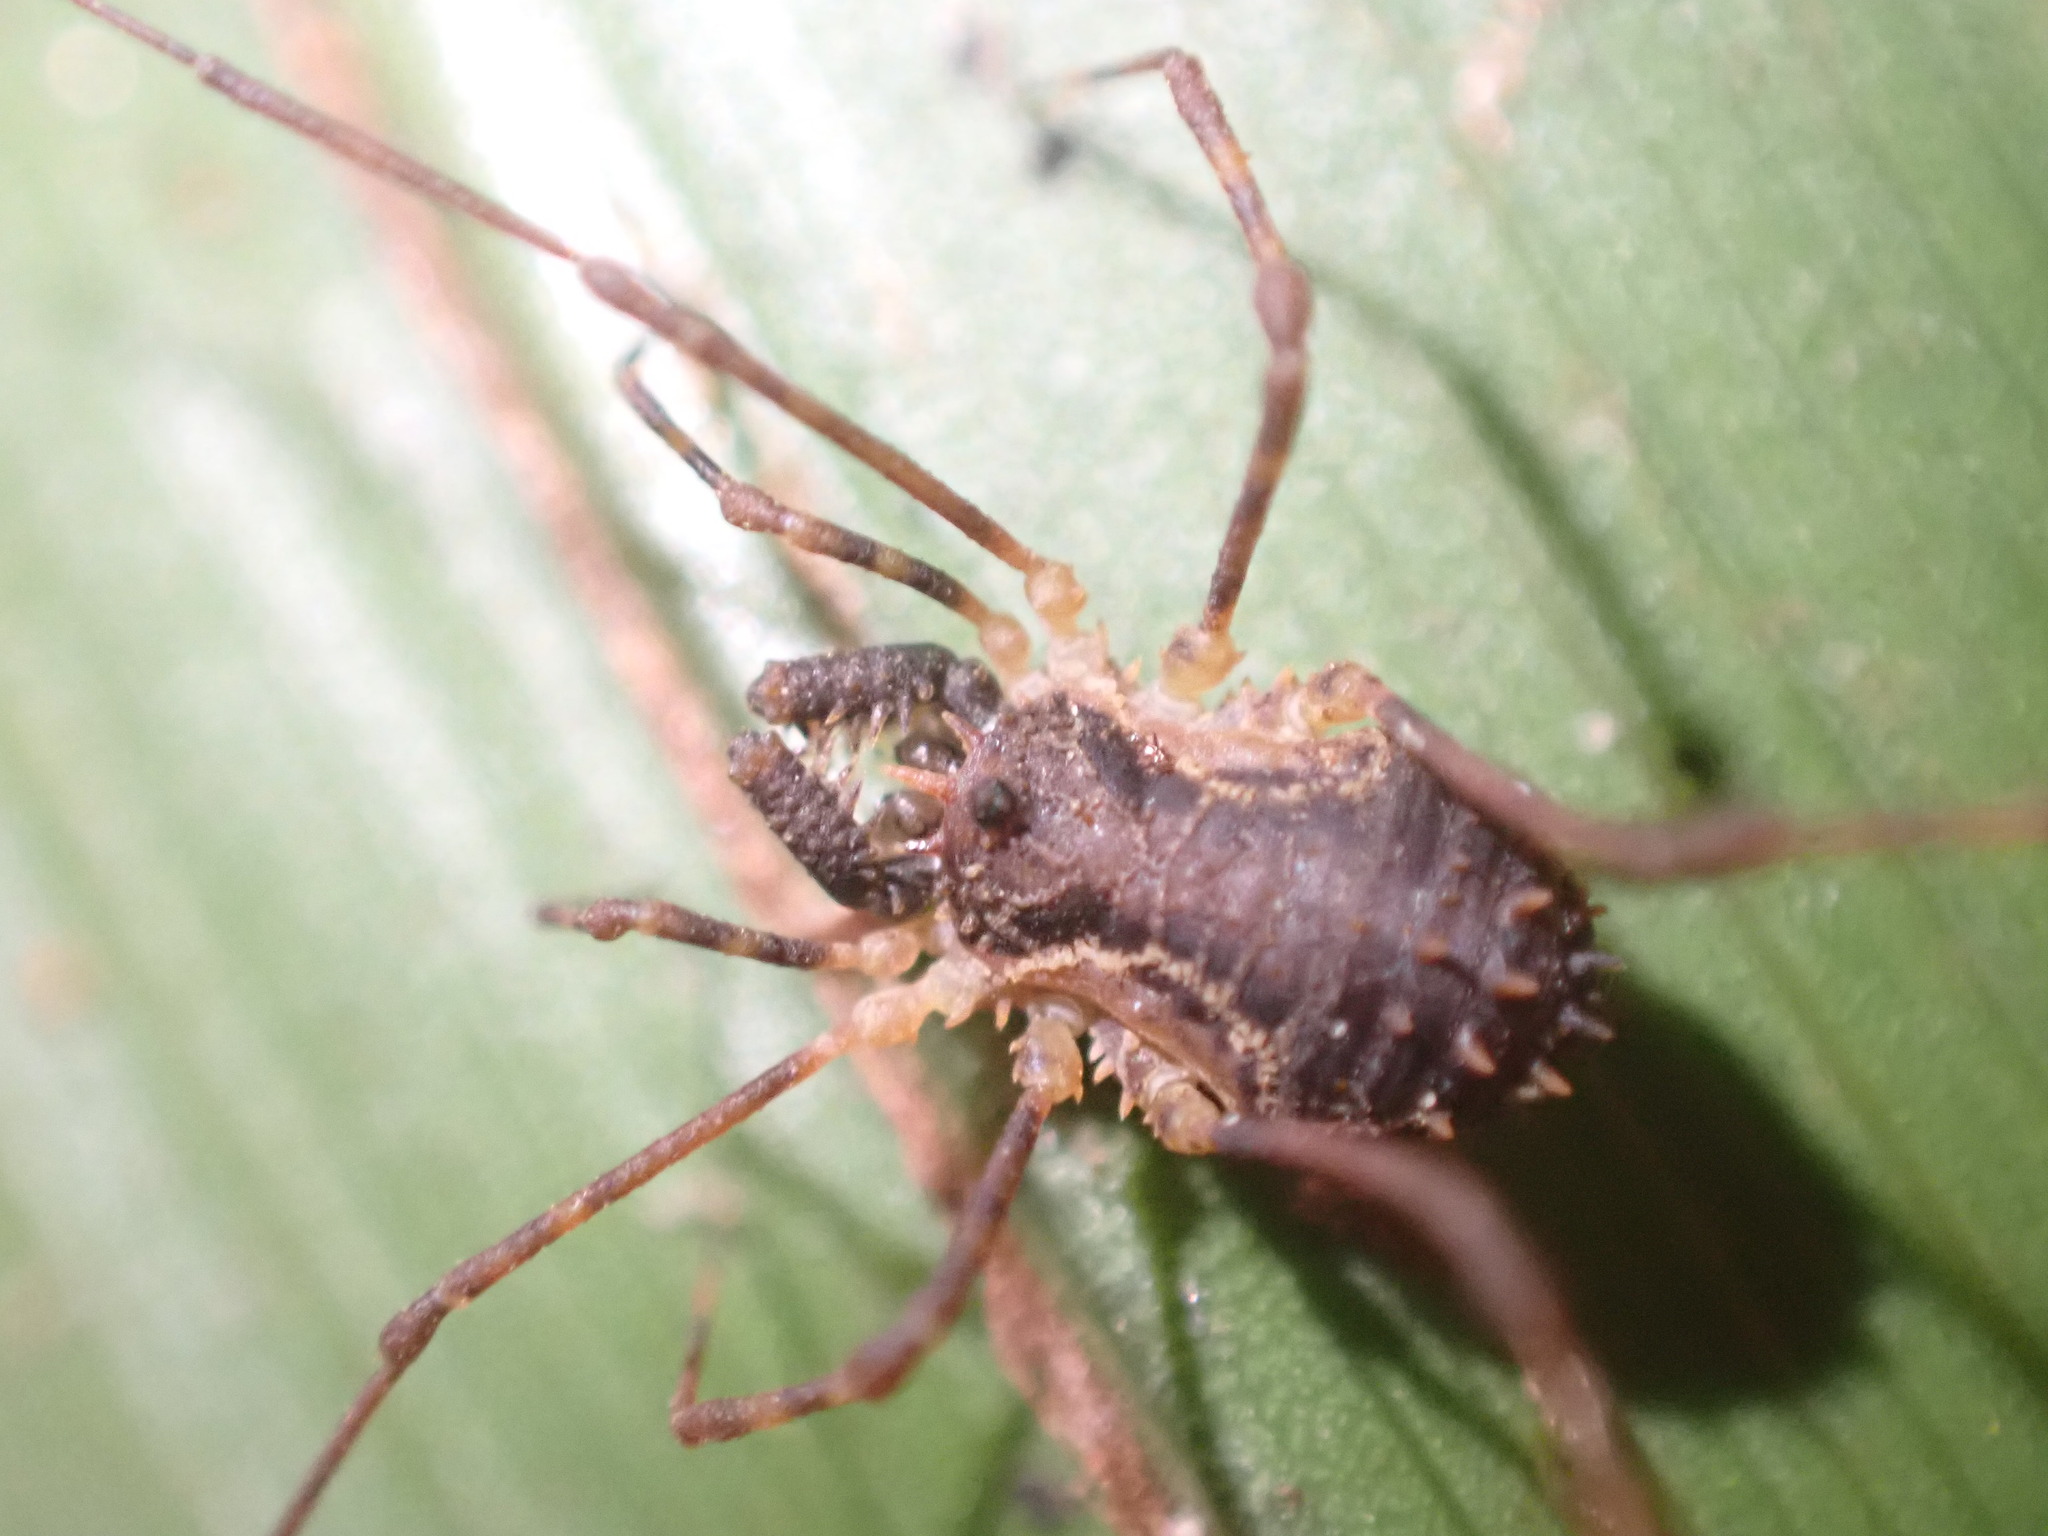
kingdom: Animalia
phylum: Arthropoda
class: Arachnida
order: Opiliones
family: Triaenonychidae
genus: Algidia
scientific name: Algidia chiltoni
